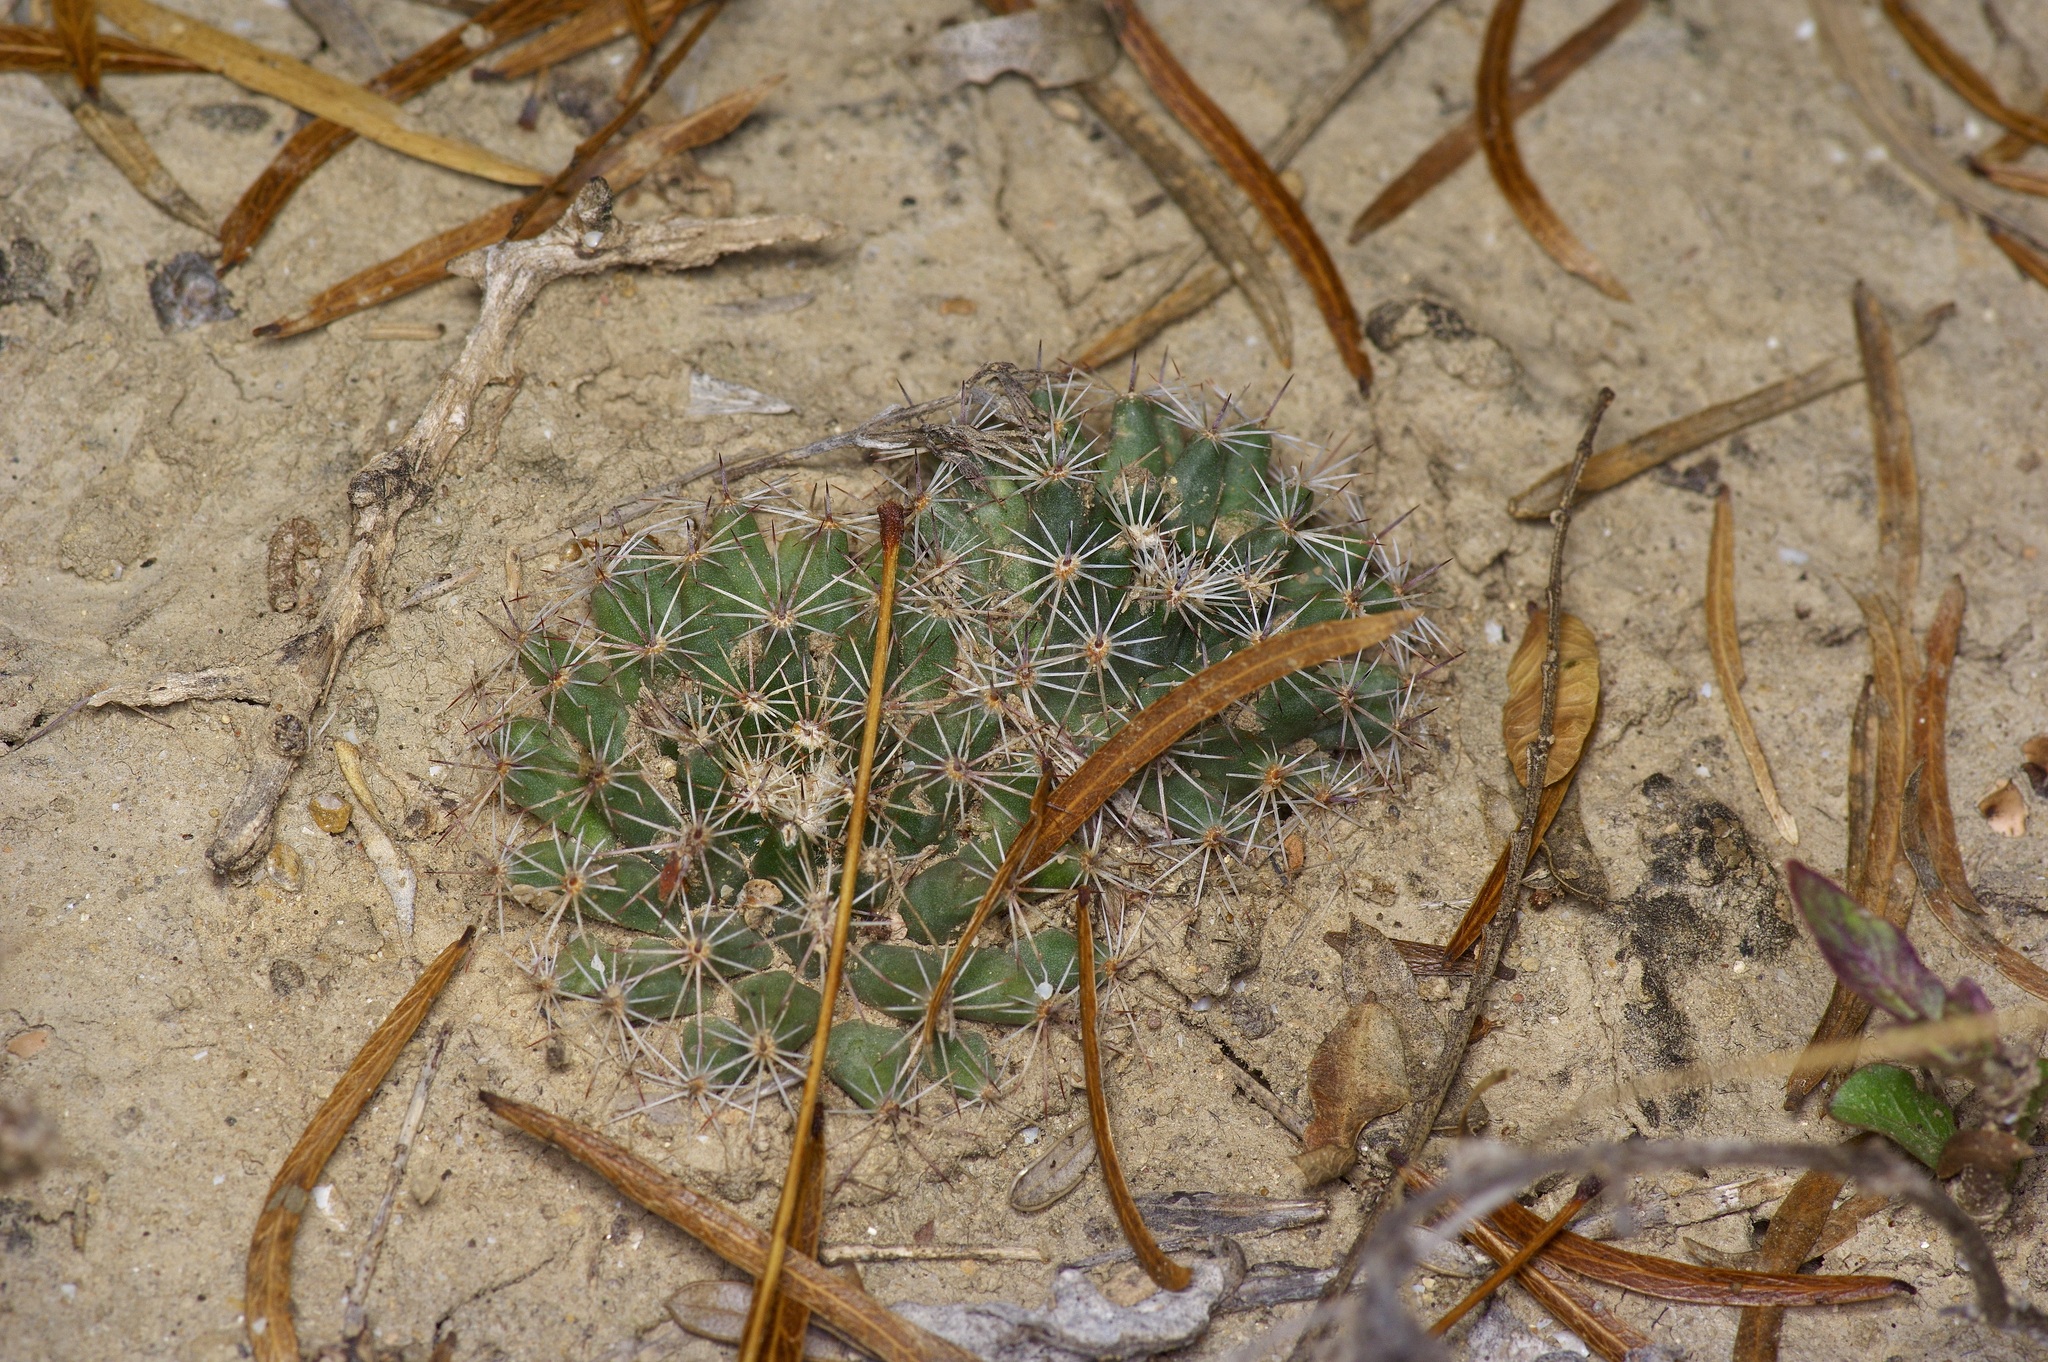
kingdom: Plantae
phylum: Tracheophyta
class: Magnoliopsida
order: Caryophyllales
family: Cactaceae
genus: Mammillaria
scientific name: Mammillaria heyderi
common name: Little nipple cactus
